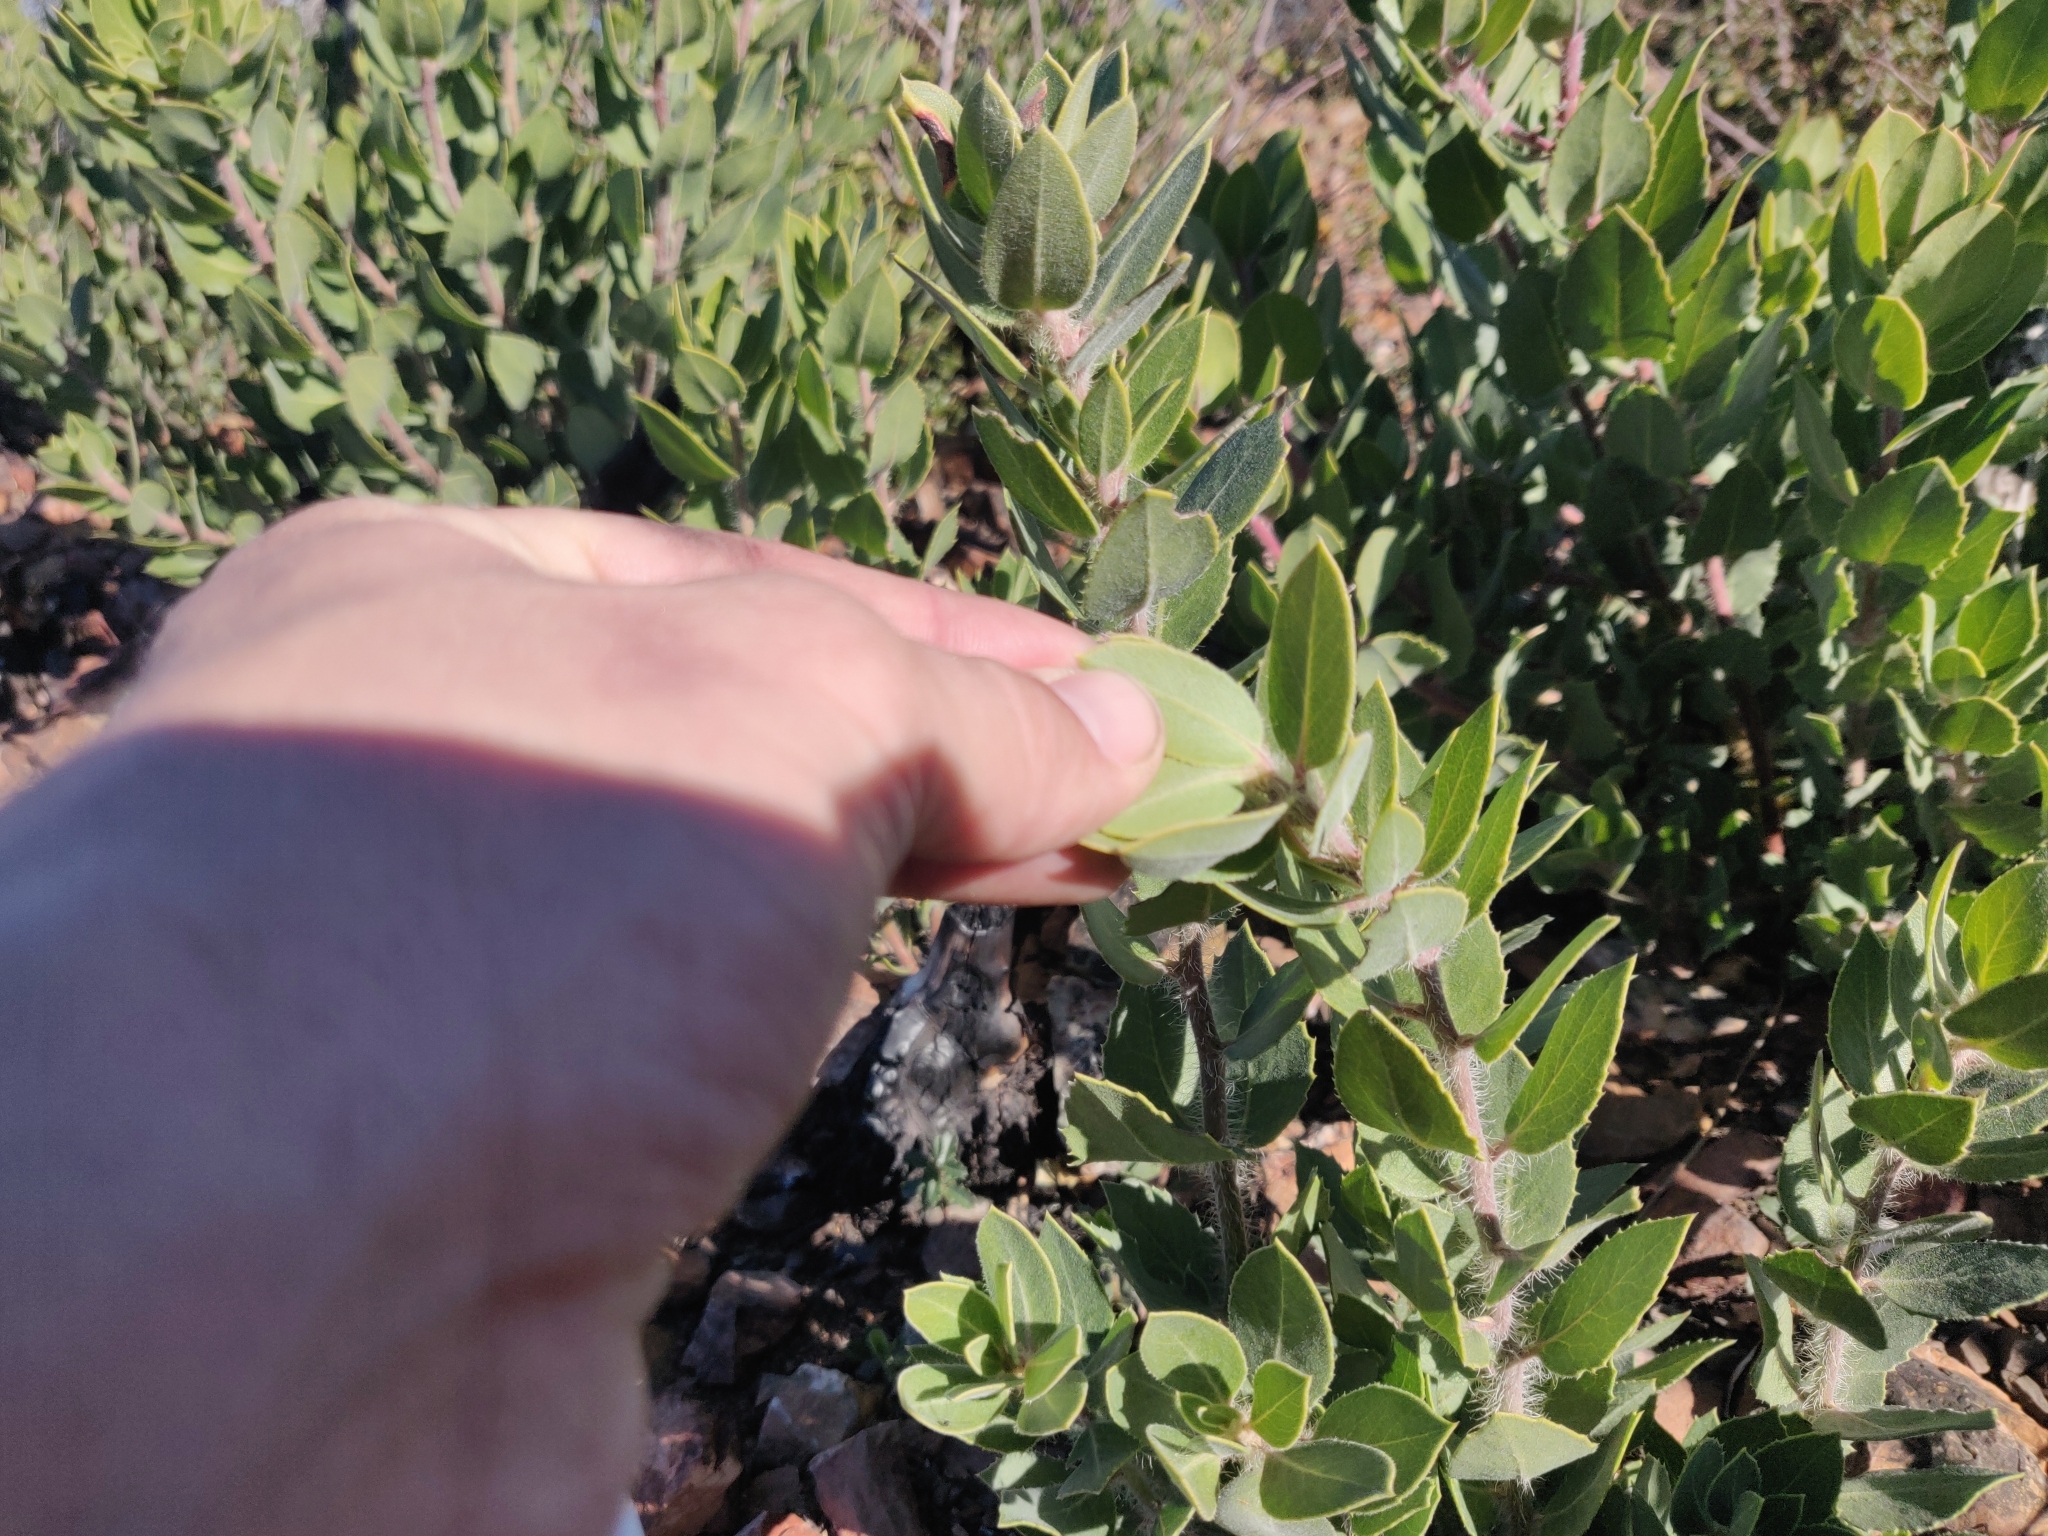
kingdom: Plantae
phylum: Tracheophyta
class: Magnoliopsida
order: Ericales
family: Ericaceae
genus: Arctostaphylos
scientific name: Arctostaphylos crustacea
